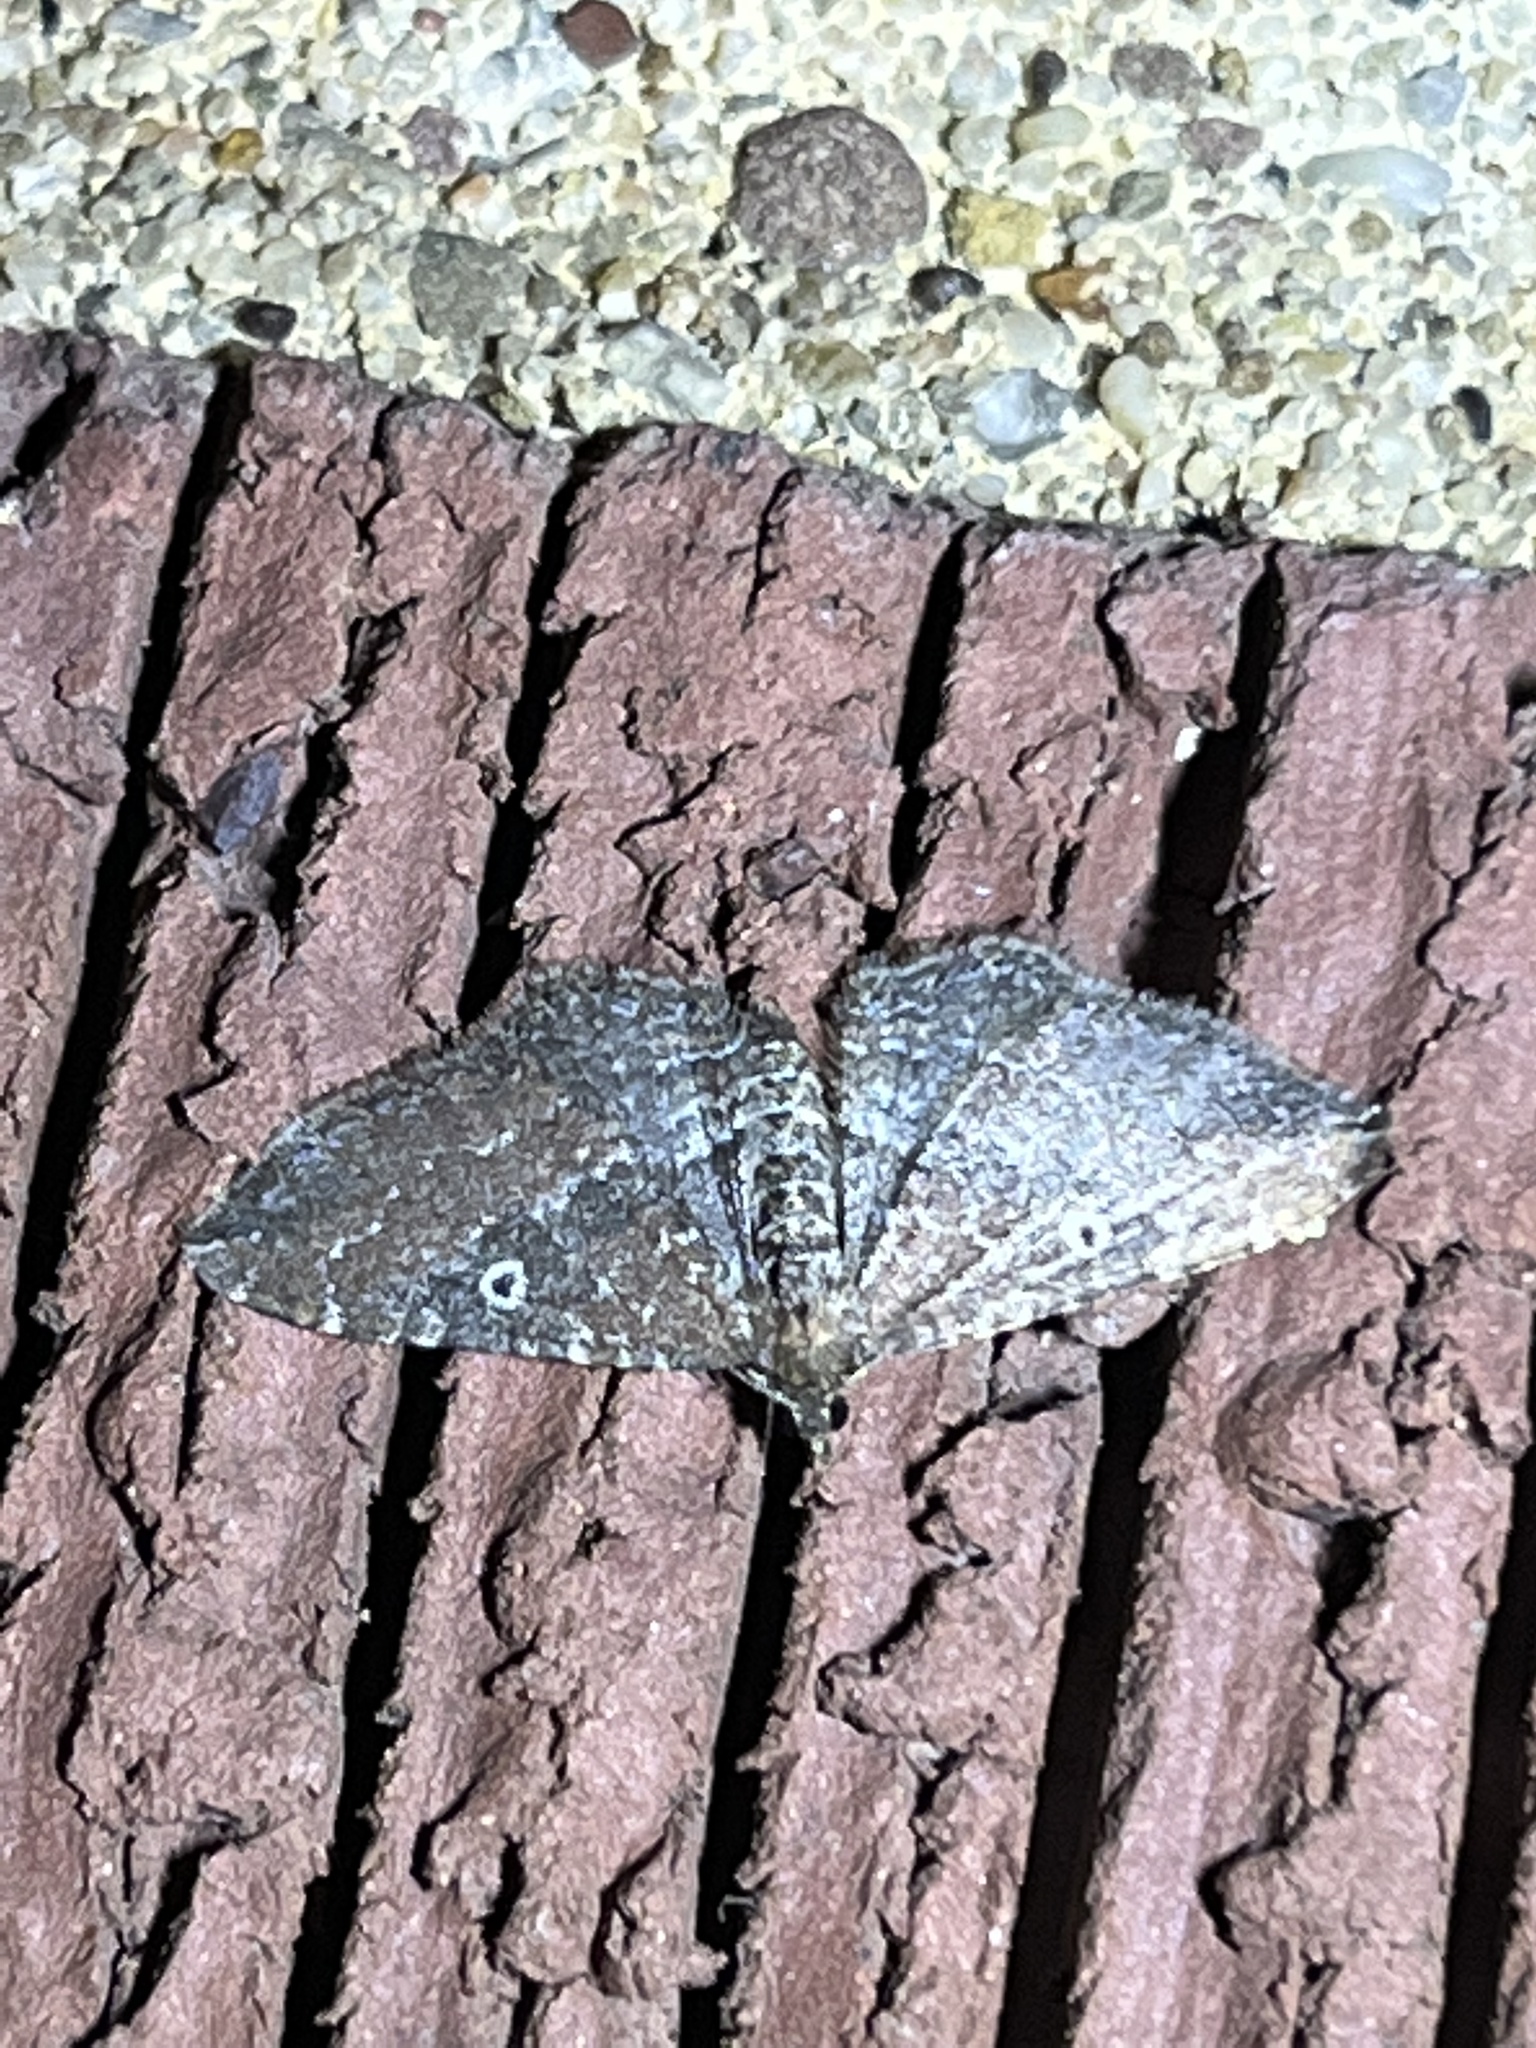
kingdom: Animalia
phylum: Arthropoda
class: Insecta
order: Lepidoptera
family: Geometridae
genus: Orthonama
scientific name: Orthonama obstipata
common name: The gem
